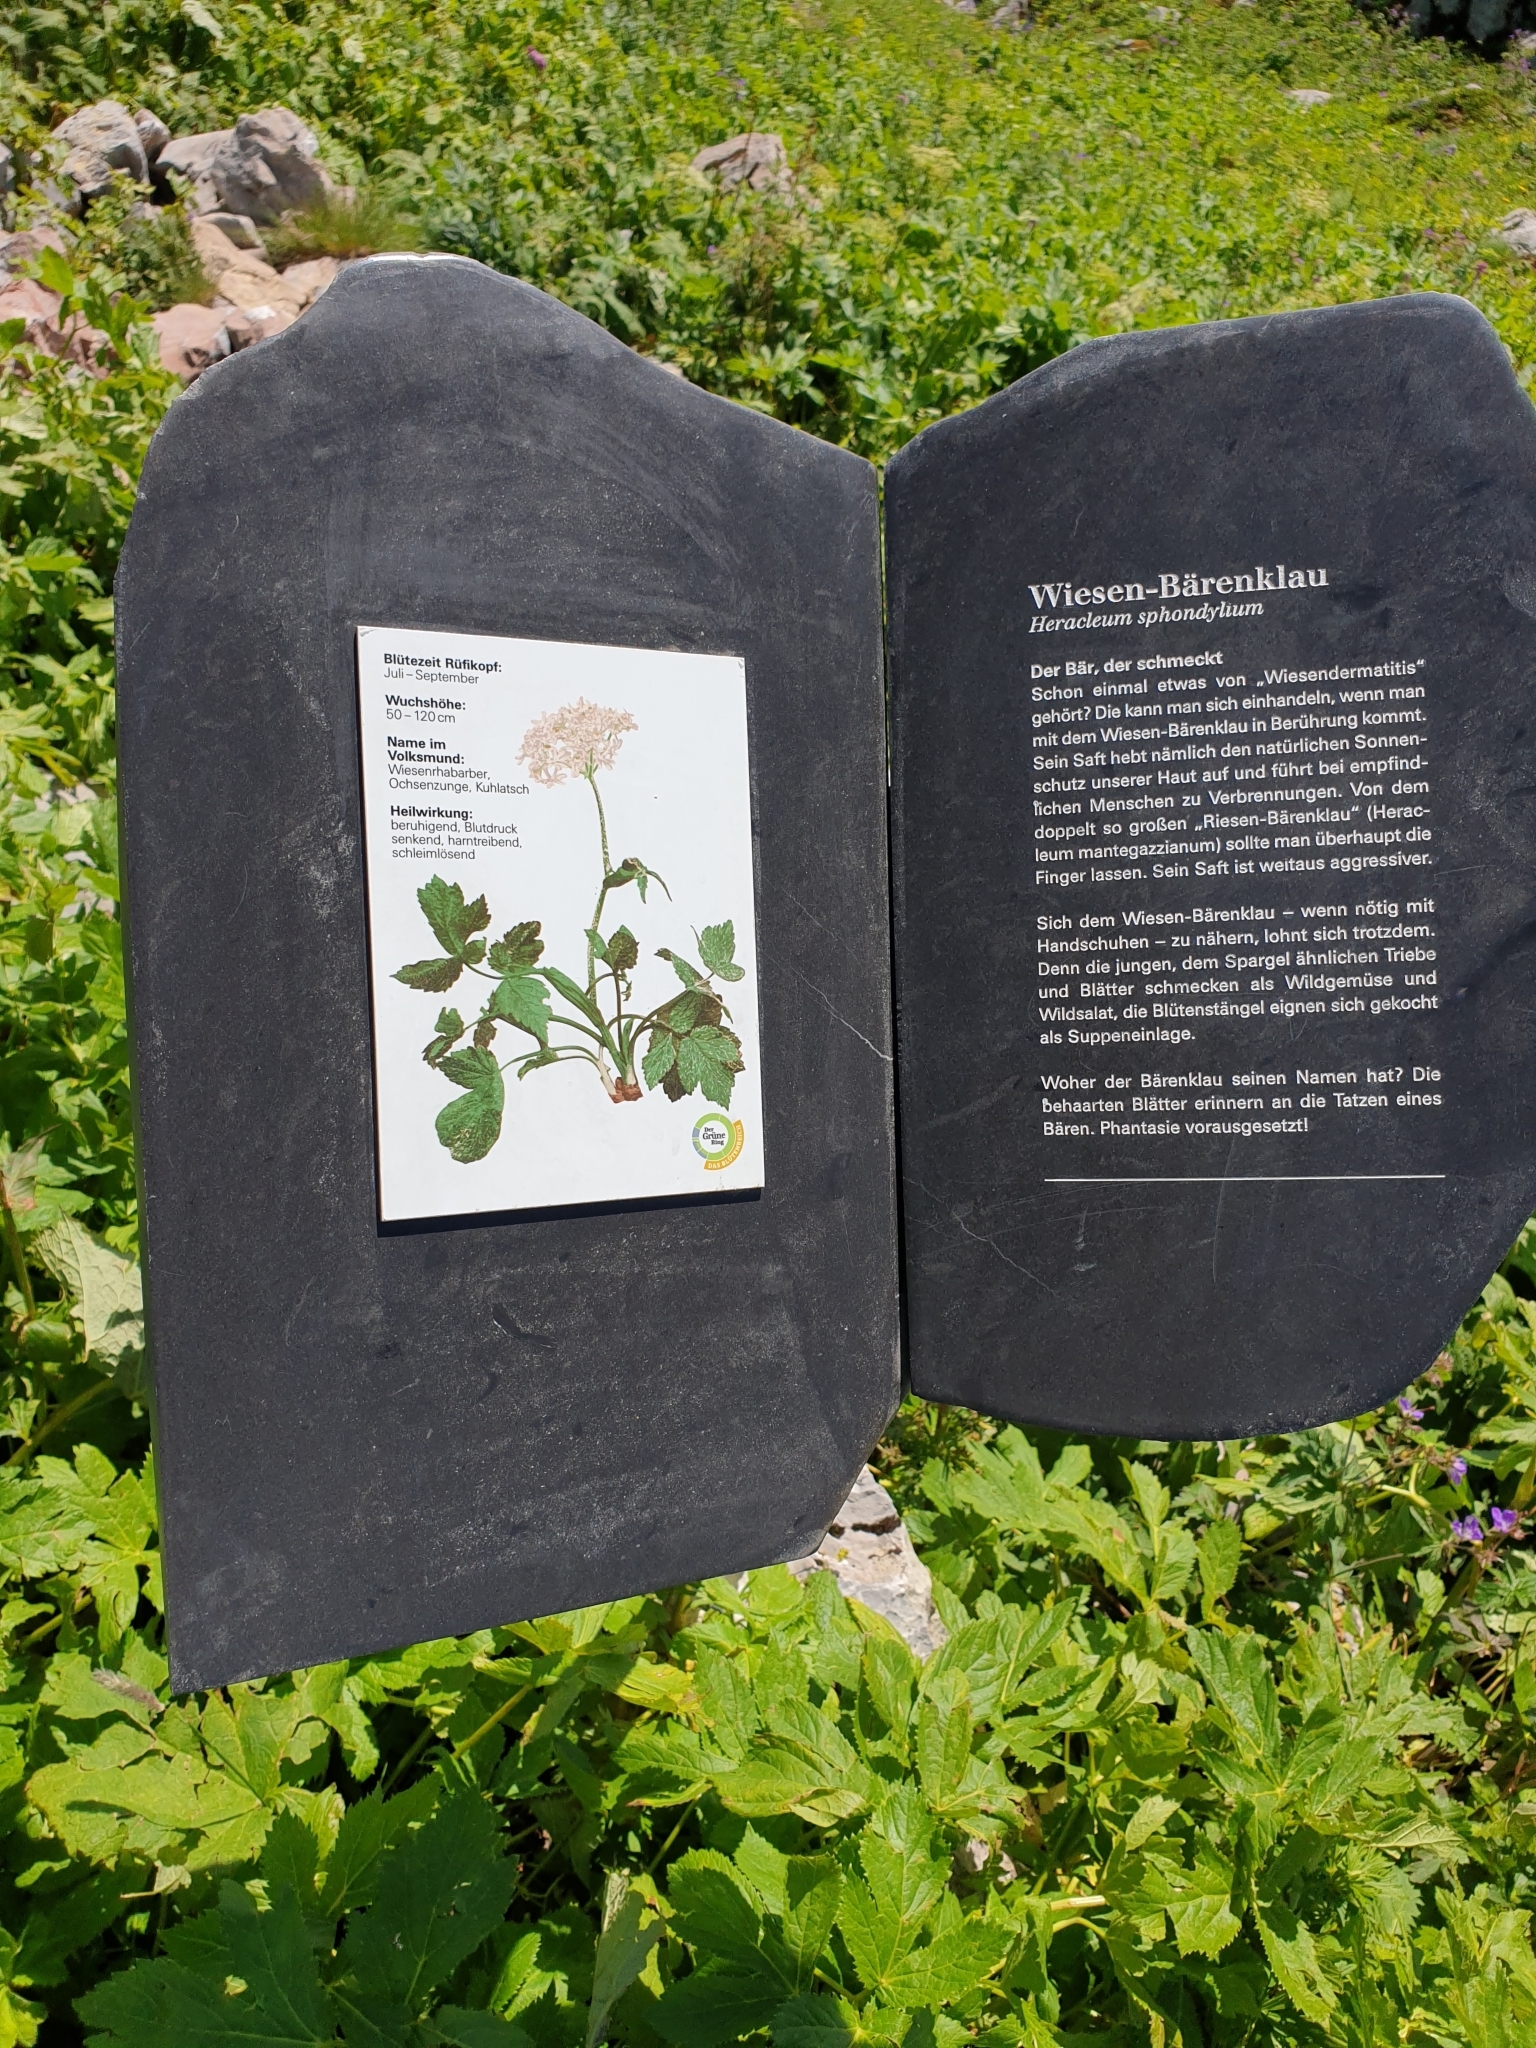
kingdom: Plantae
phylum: Tracheophyta
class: Magnoliopsida
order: Apiales
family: Apiaceae
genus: Heracleum
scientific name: Heracleum sphondylium
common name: Hogweed
